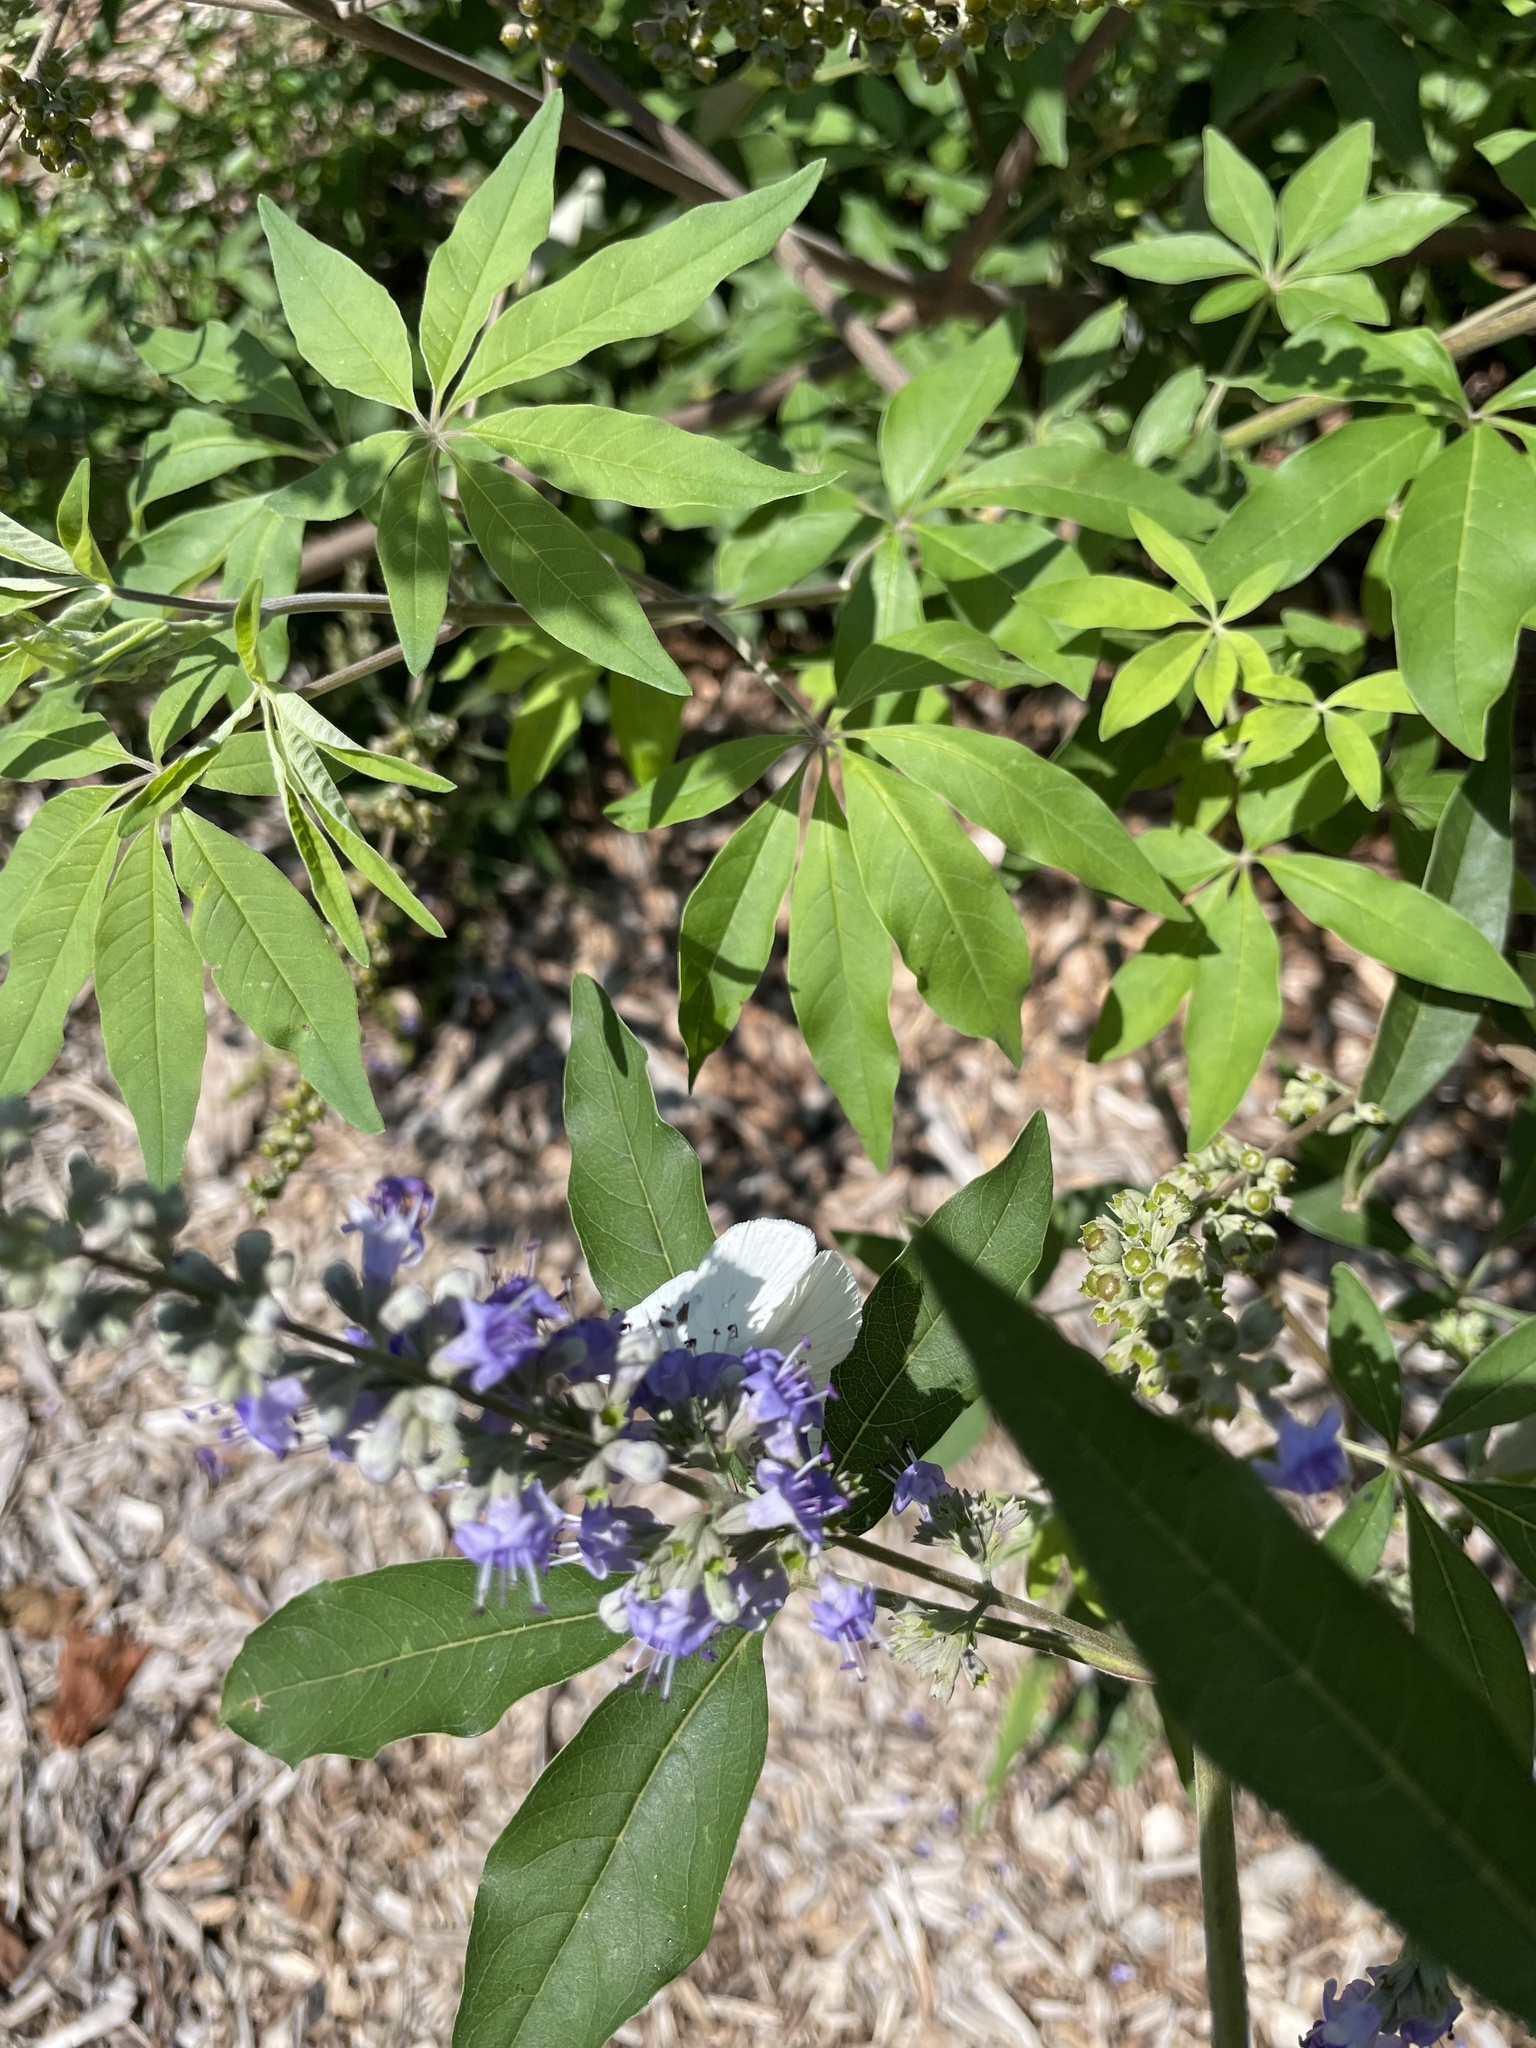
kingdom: Animalia
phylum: Arthropoda
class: Insecta
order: Lepidoptera
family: Pieridae
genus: Pontia
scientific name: Pontia protodice
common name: Checkered white
